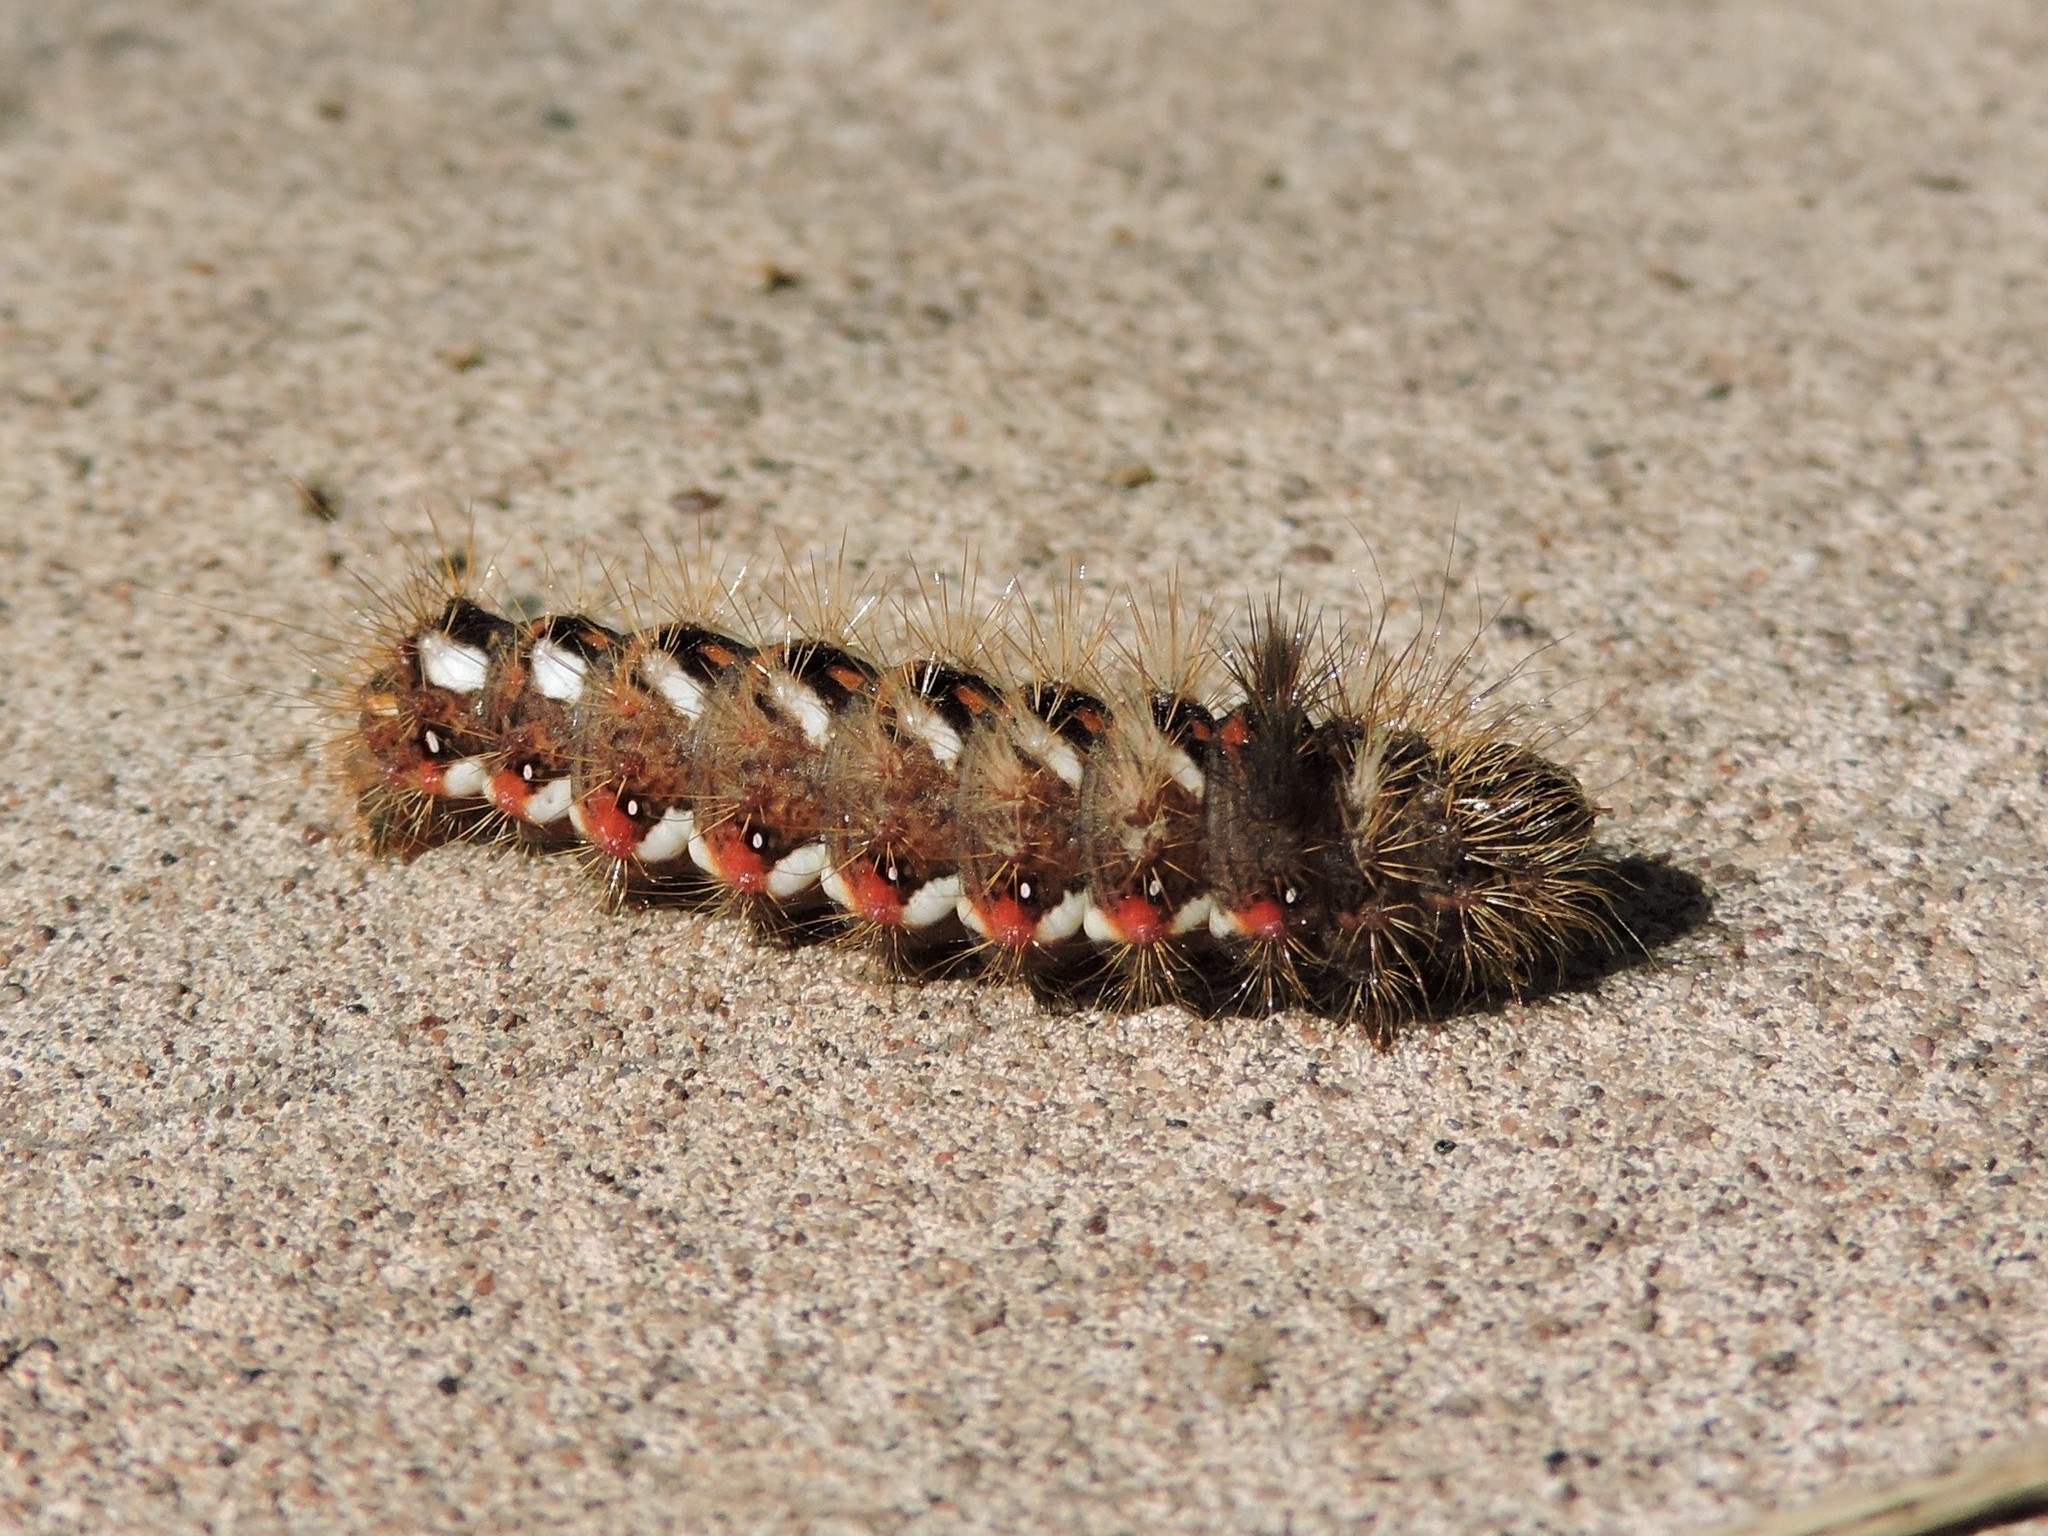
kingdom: Animalia
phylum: Arthropoda
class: Insecta
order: Lepidoptera
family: Noctuidae
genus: Acronicta
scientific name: Acronicta rumicis
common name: Knot grass
